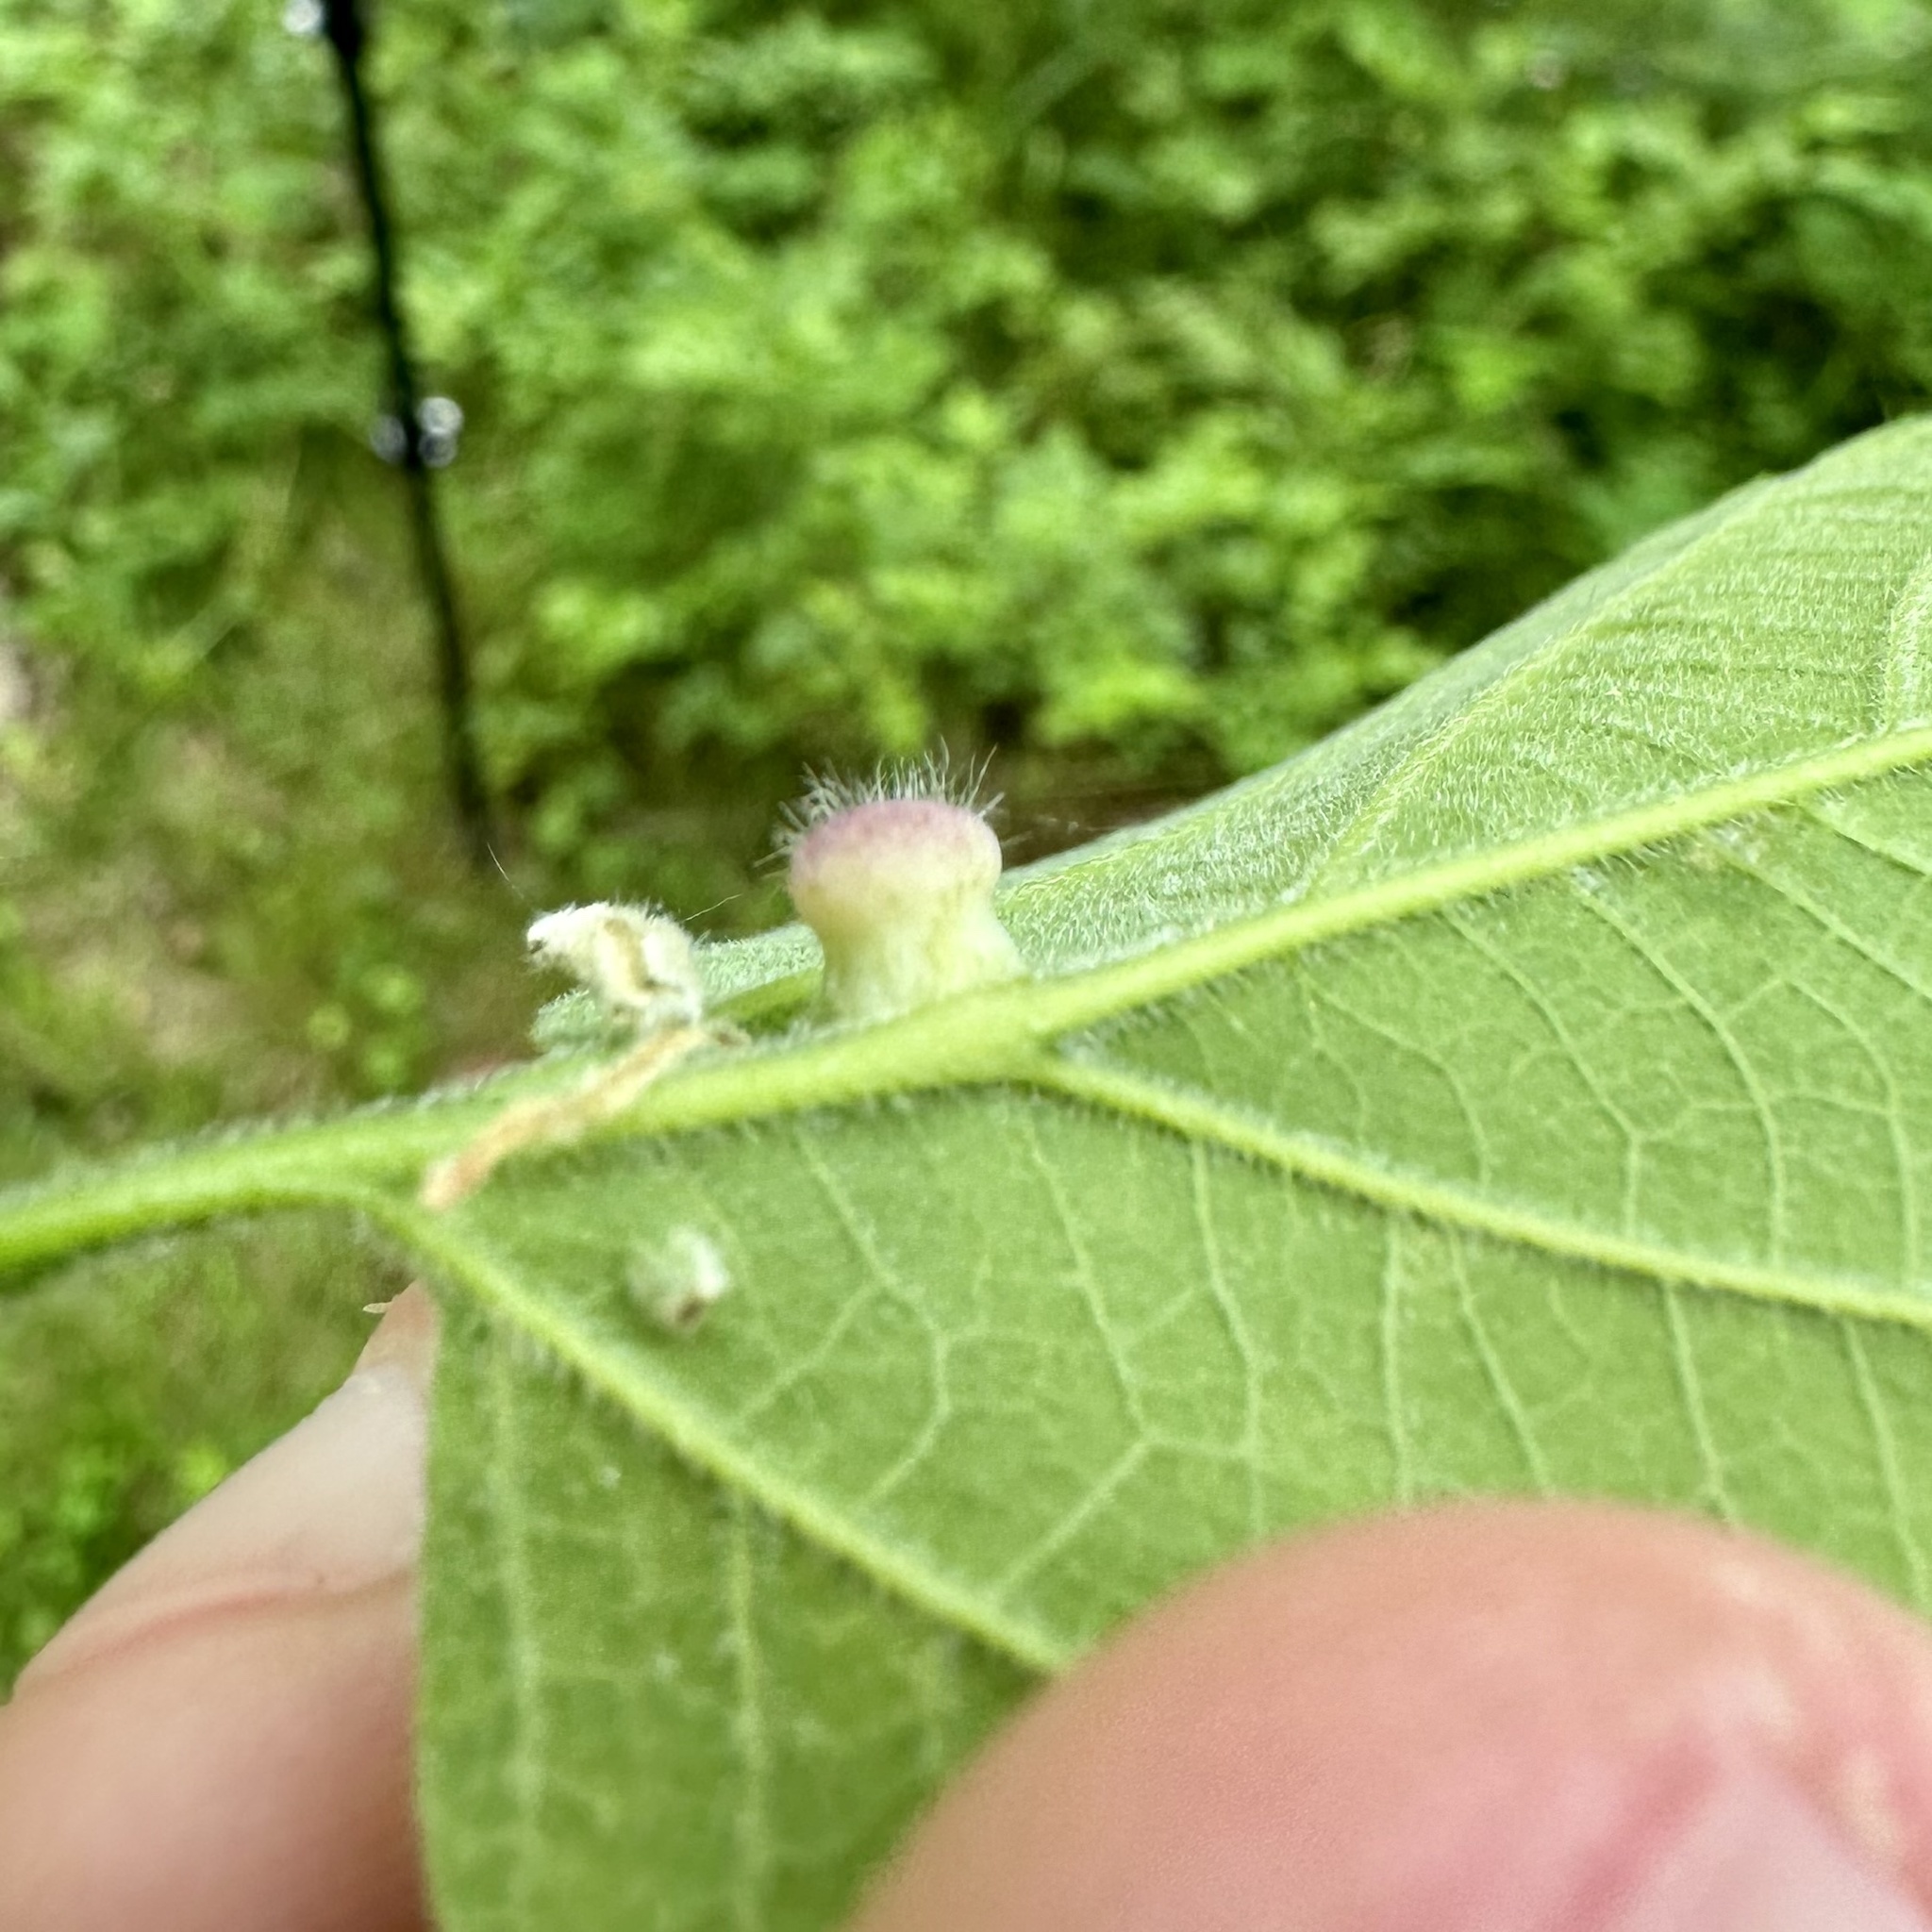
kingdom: Animalia
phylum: Arthropoda
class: Insecta
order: Hemiptera
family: Aphalaridae
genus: Pachypsylla
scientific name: Pachypsylla celtidismamma
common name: Hackberry nipplegall psyllid
